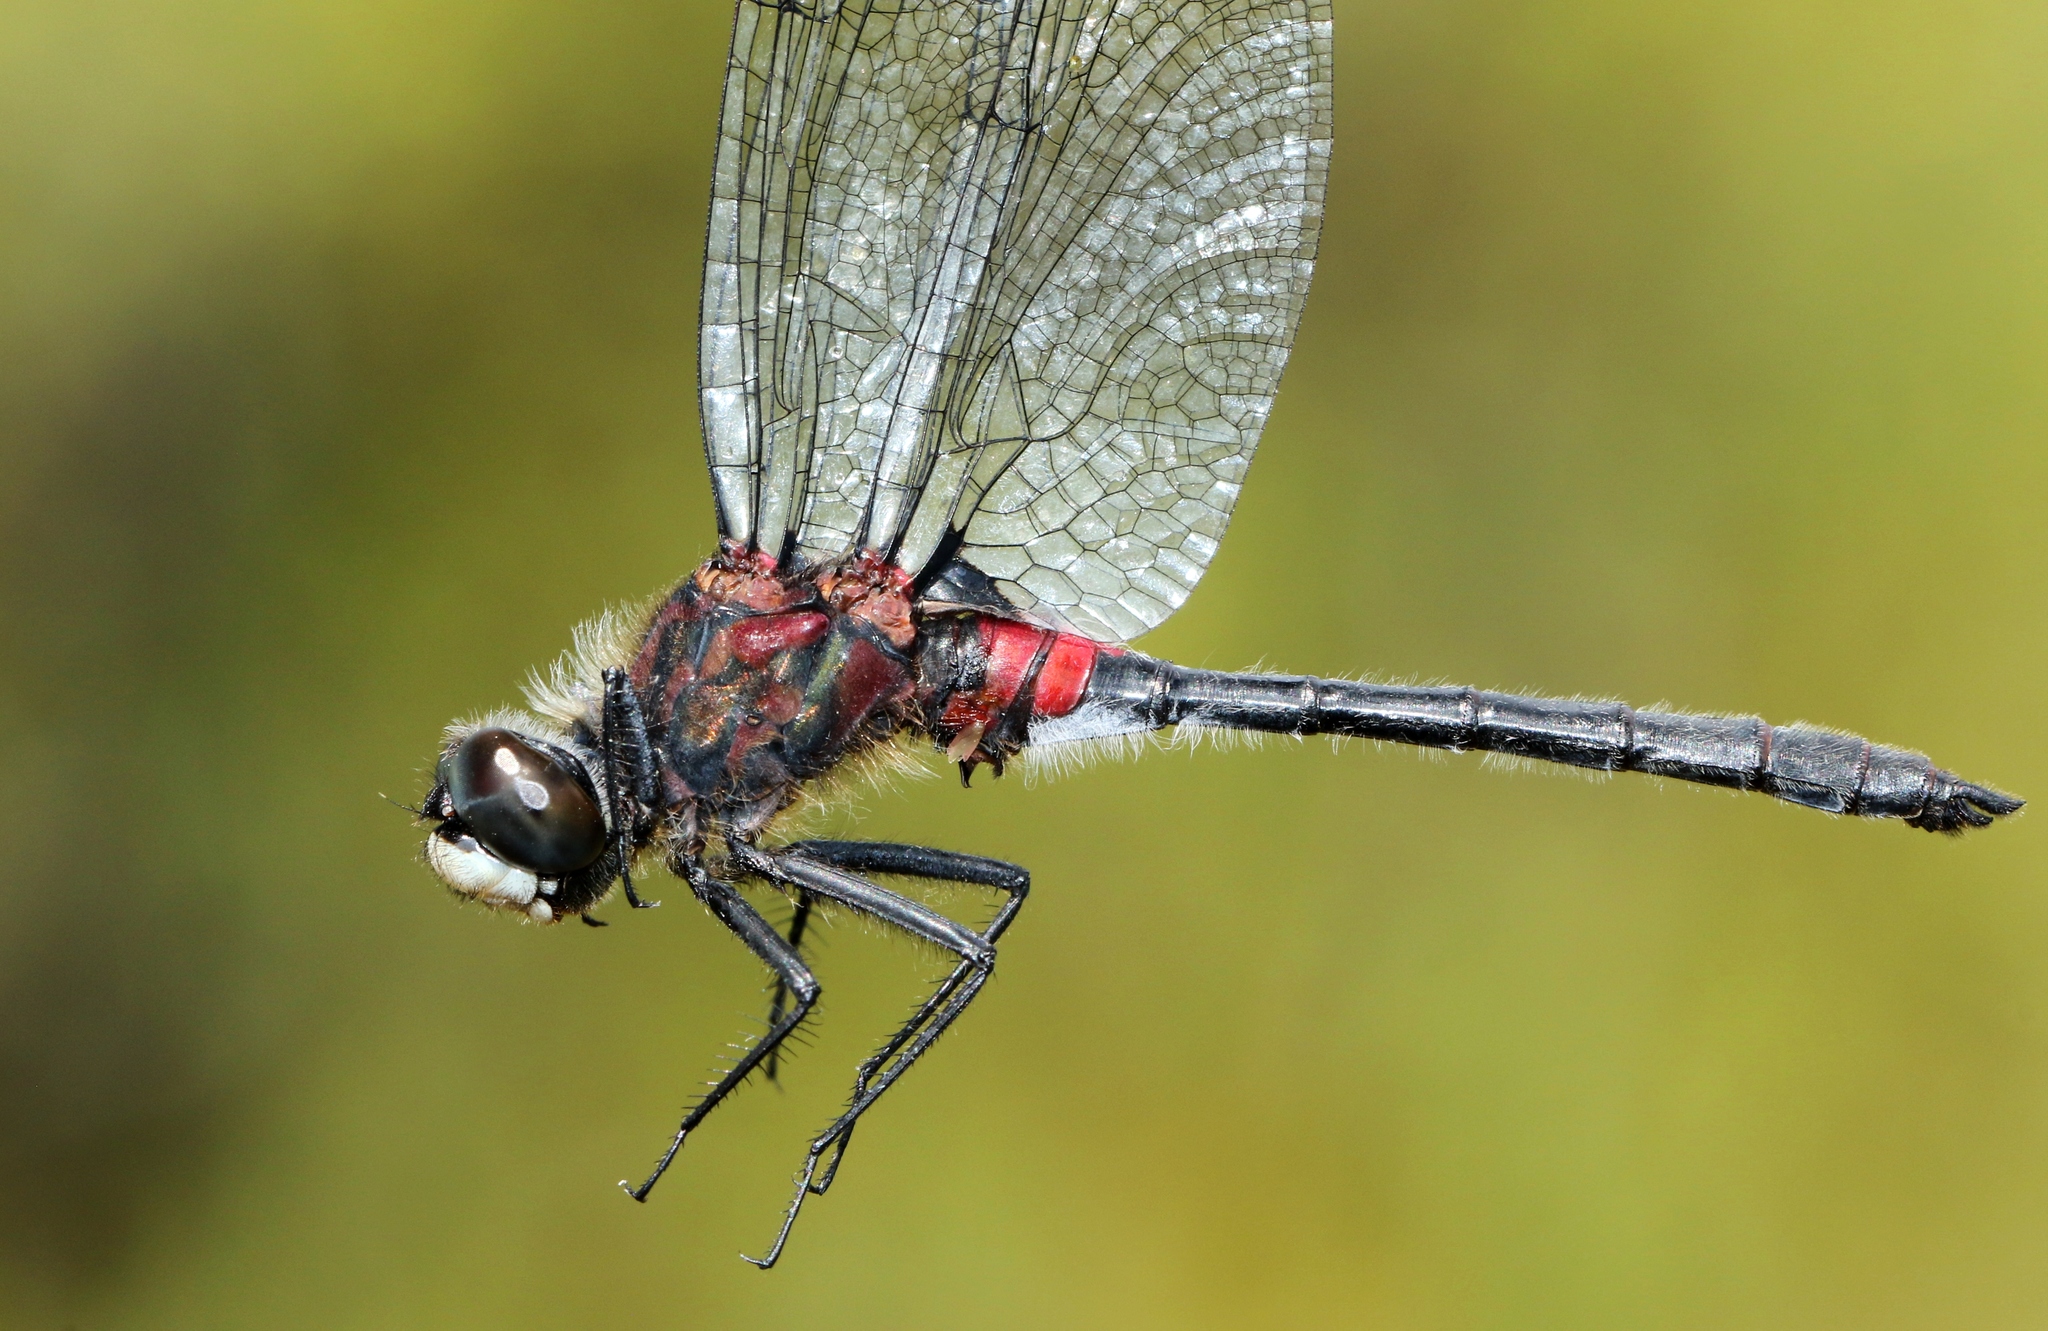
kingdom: Animalia
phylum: Arthropoda
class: Insecta
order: Odonata
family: Libellulidae
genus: Leucorrhinia
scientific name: Leucorrhinia glacialis
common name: Crimson-ringed whiteface
